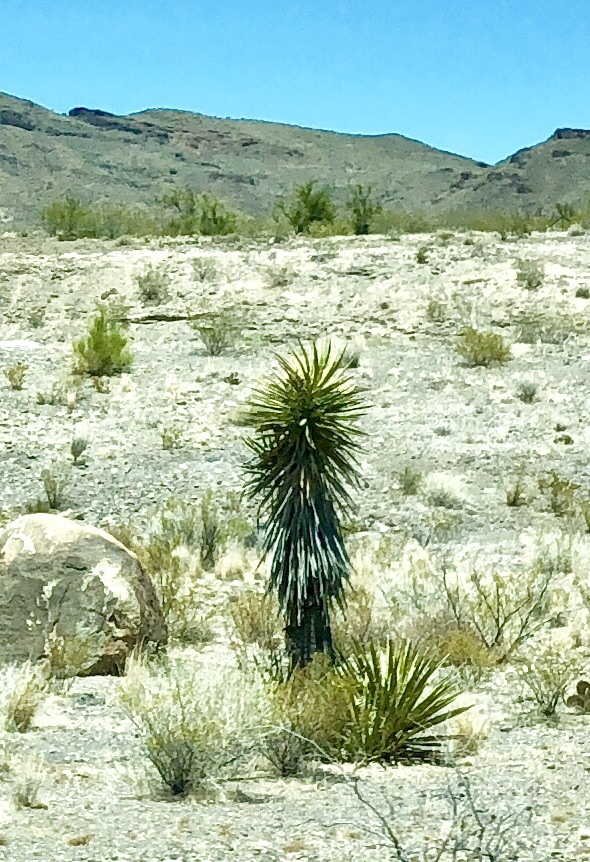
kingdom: Plantae
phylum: Tracheophyta
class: Liliopsida
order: Asparagales
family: Asparagaceae
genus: Yucca
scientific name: Yucca schidigera
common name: Mojave yucca
